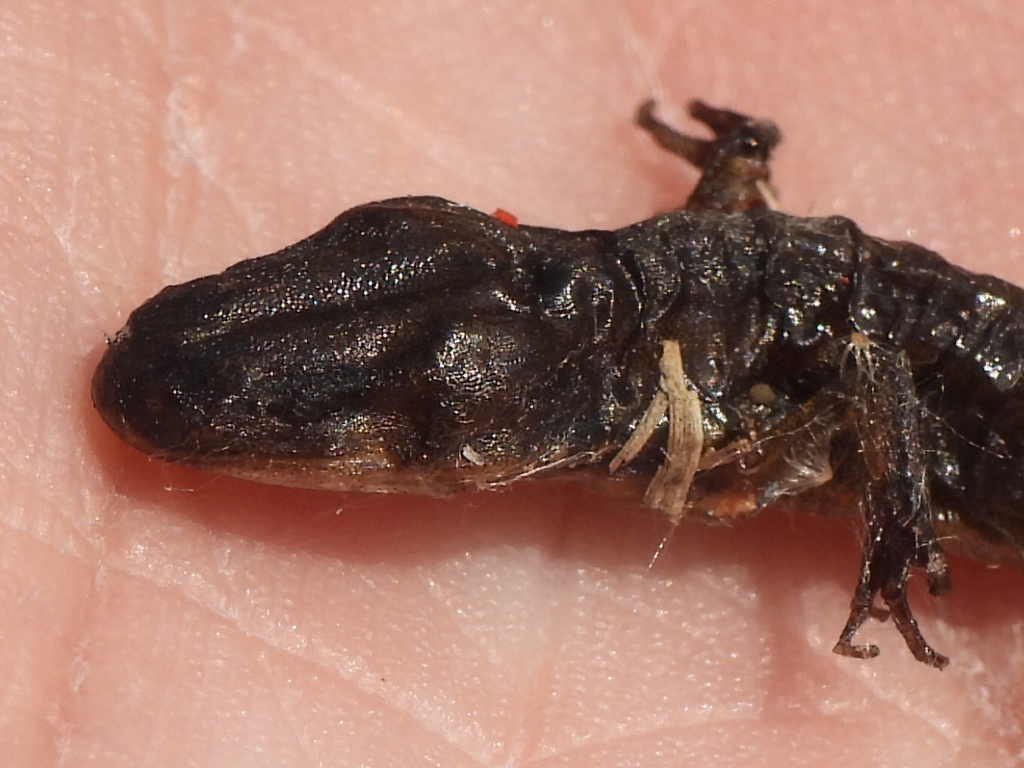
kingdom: Animalia
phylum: Chordata
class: Amphibia
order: Caudata
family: Ambystomatidae
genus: Ambystoma
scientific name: Ambystoma texanum
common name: Small-mouth salamander
